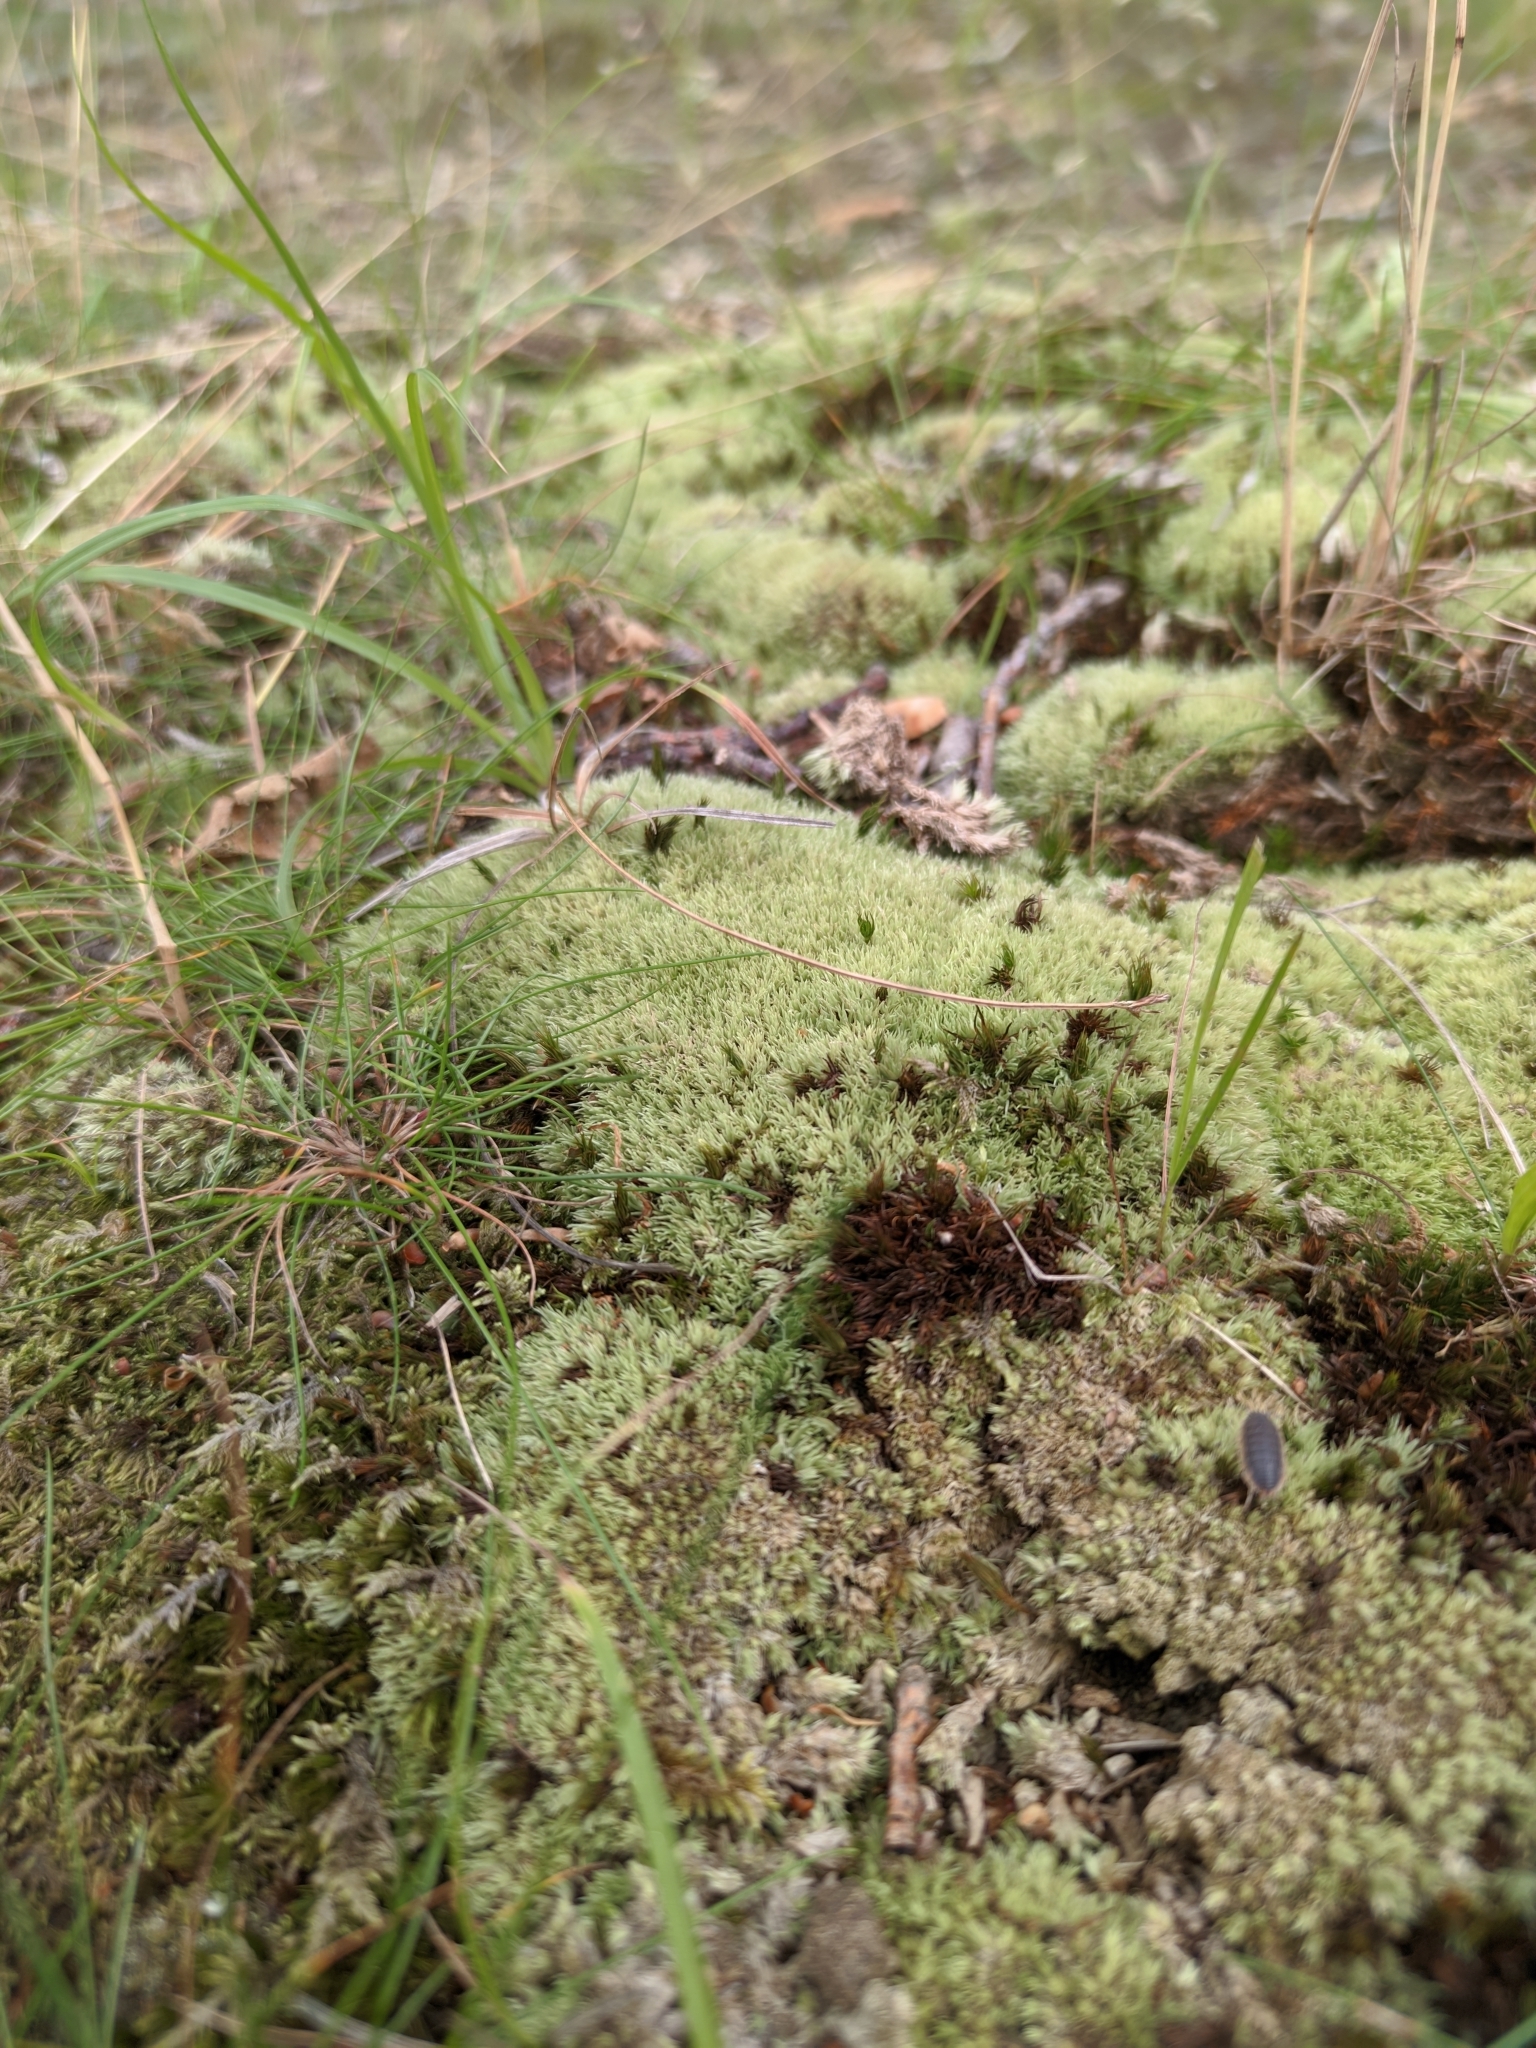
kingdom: Plantae
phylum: Bryophyta
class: Bryopsida
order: Dicranales
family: Leucobryaceae
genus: Leucobryum
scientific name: Leucobryum glaucum
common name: Large white-moss
